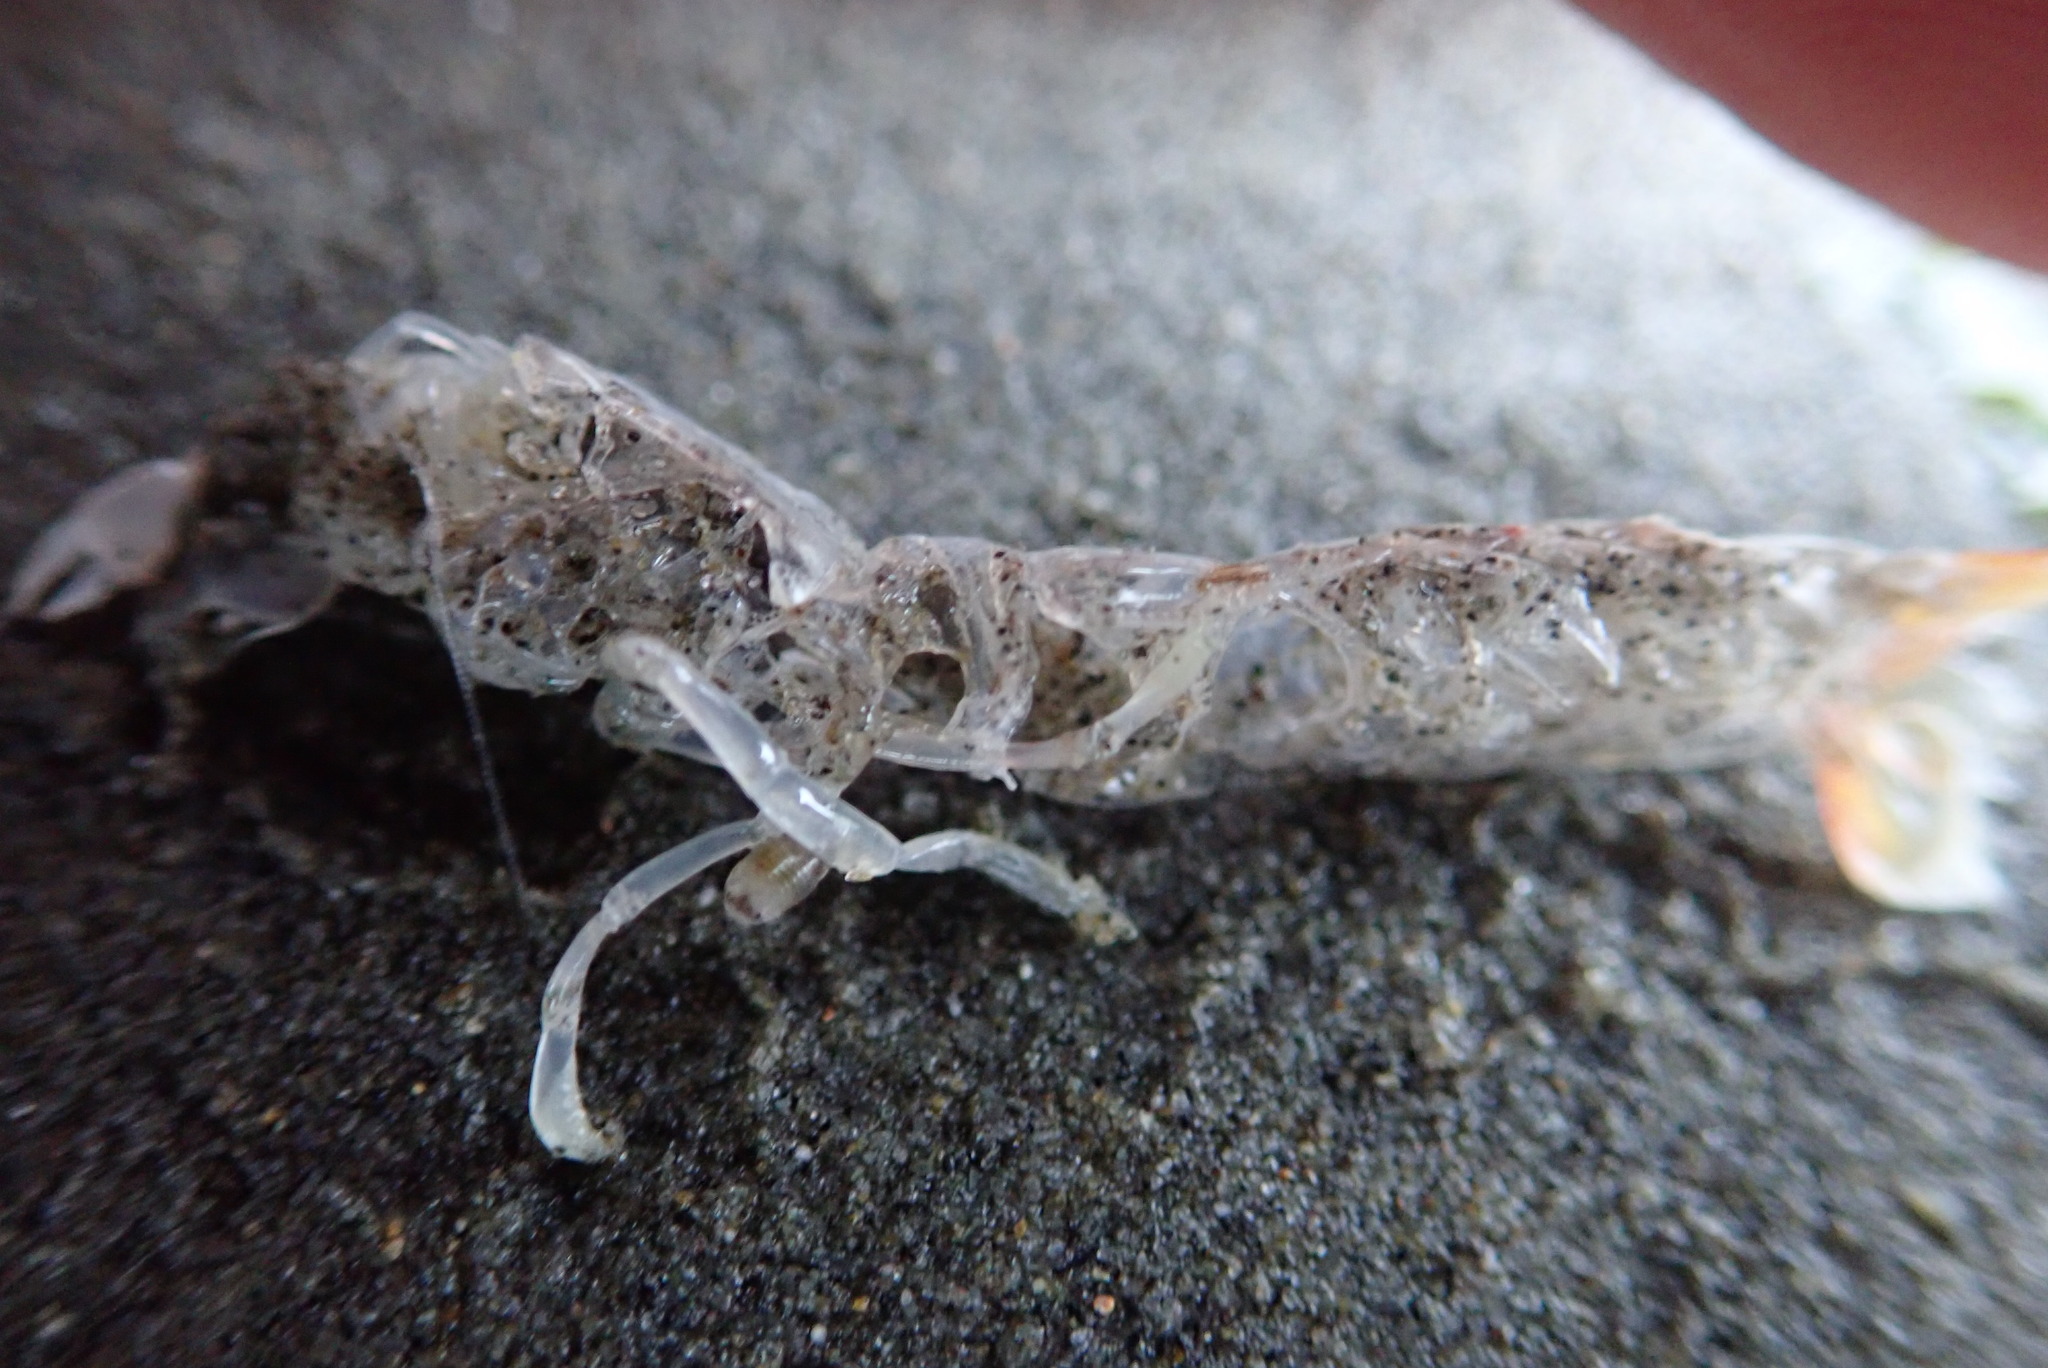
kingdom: Animalia
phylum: Arthropoda
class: Malacostraca
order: Decapoda
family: Callianassidae
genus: Filhollianassa
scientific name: Filhollianassa filholi
